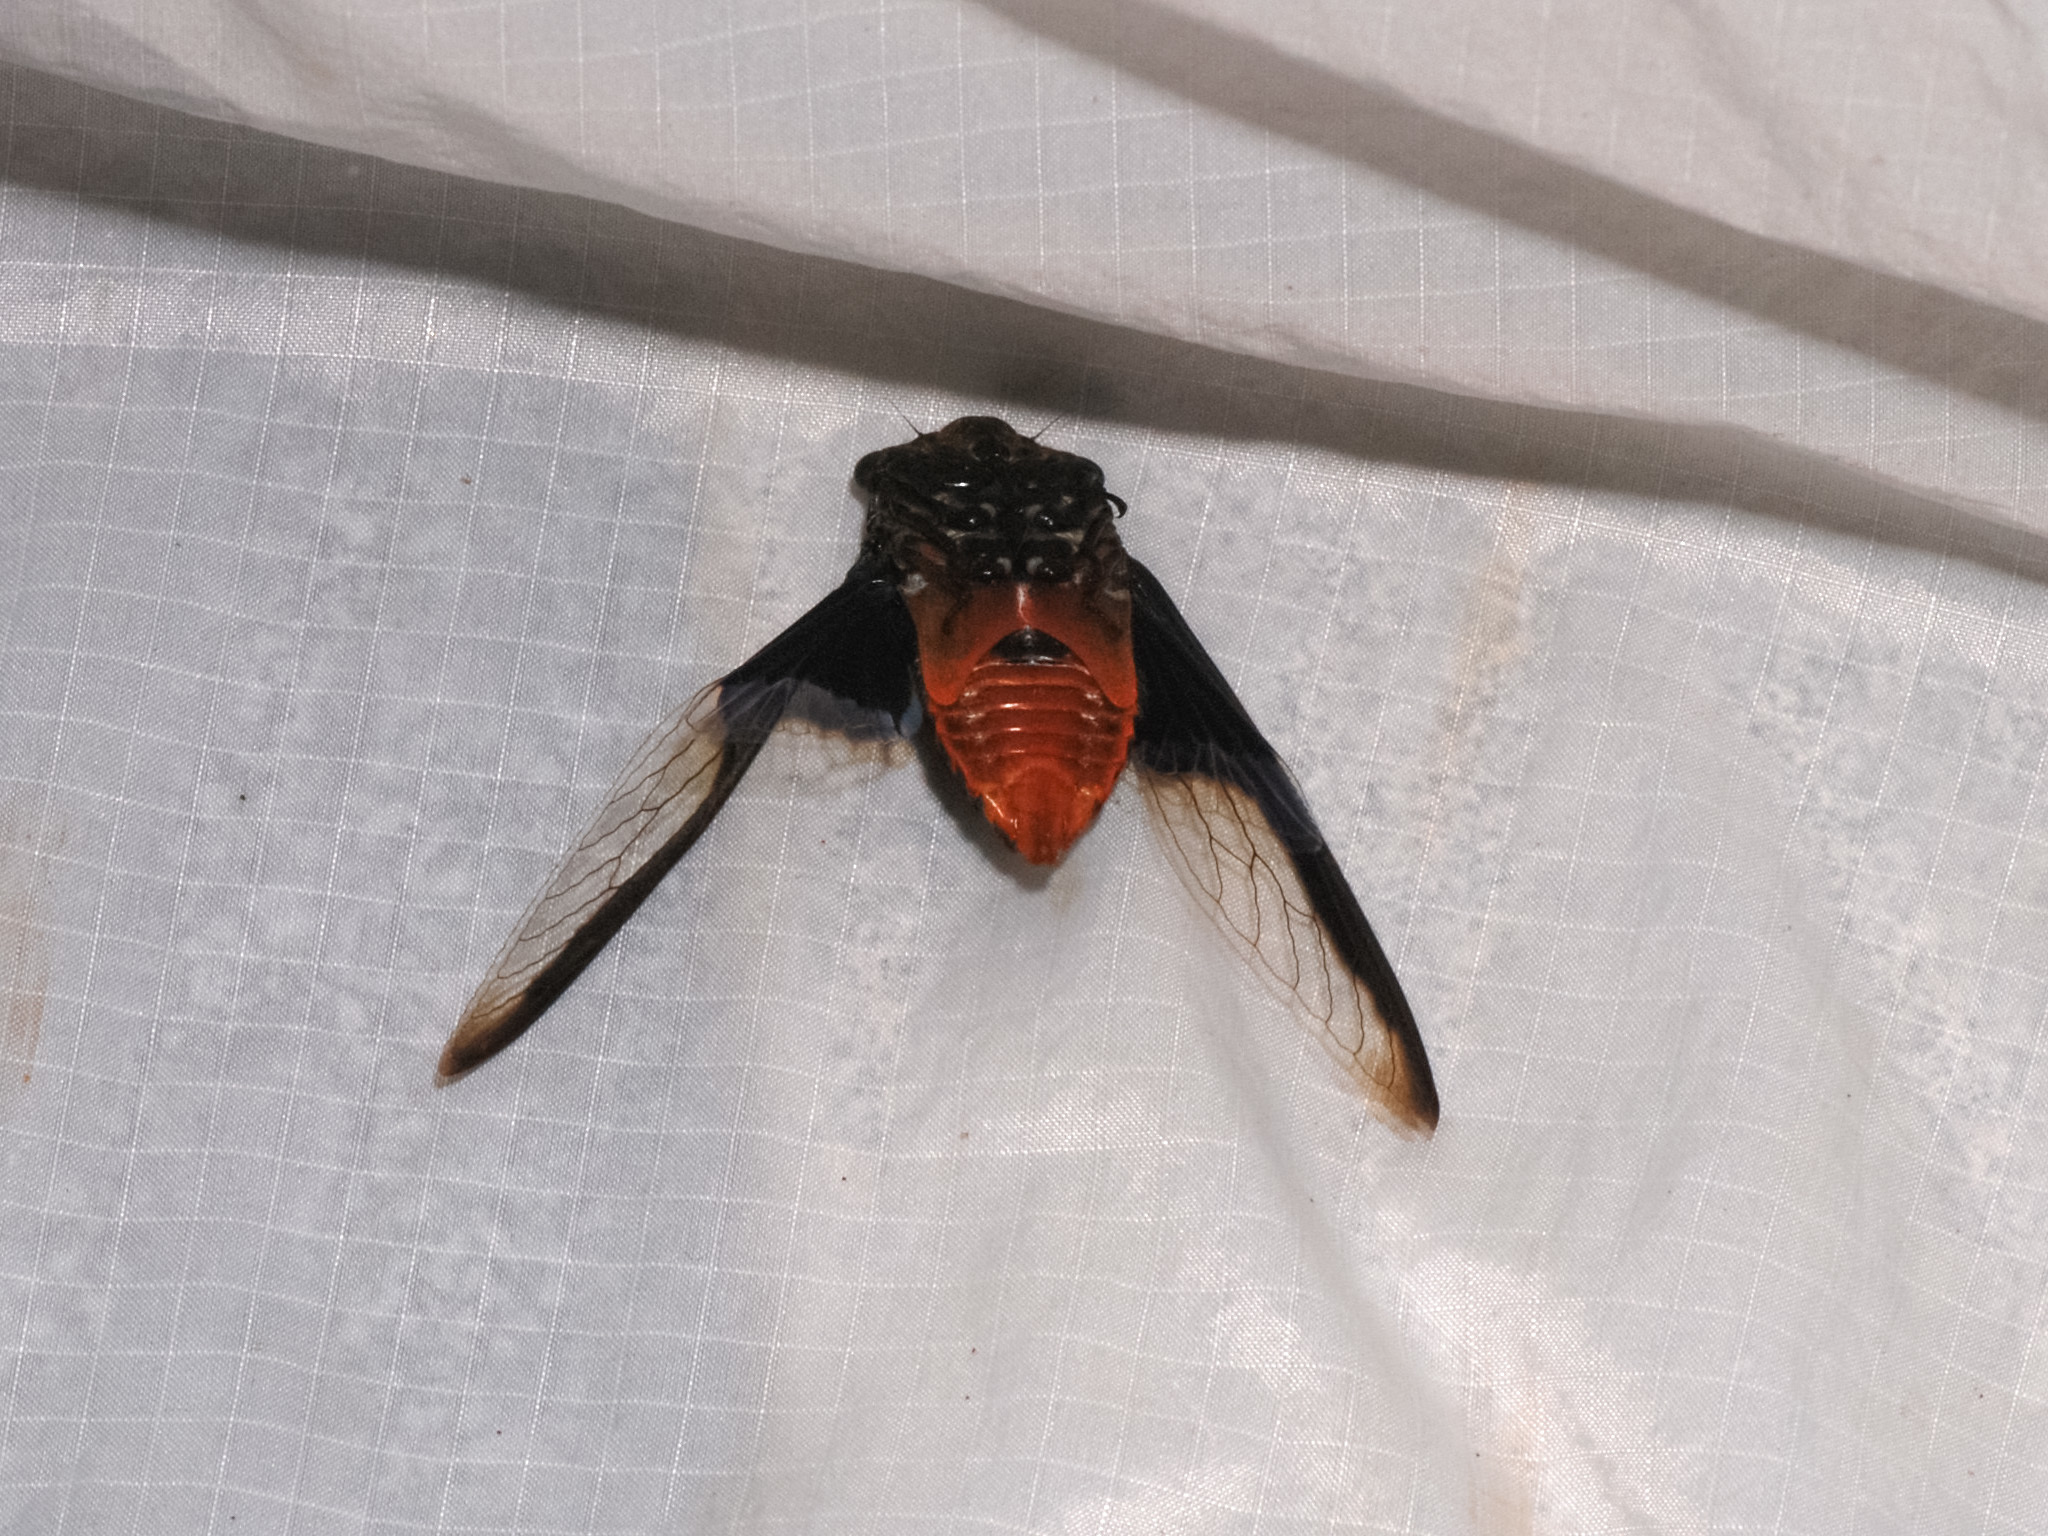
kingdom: Animalia
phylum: Arthropoda
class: Insecta
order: Hemiptera
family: Cicadidae
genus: Cryptotympana
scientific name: Cryptotympana aquila
